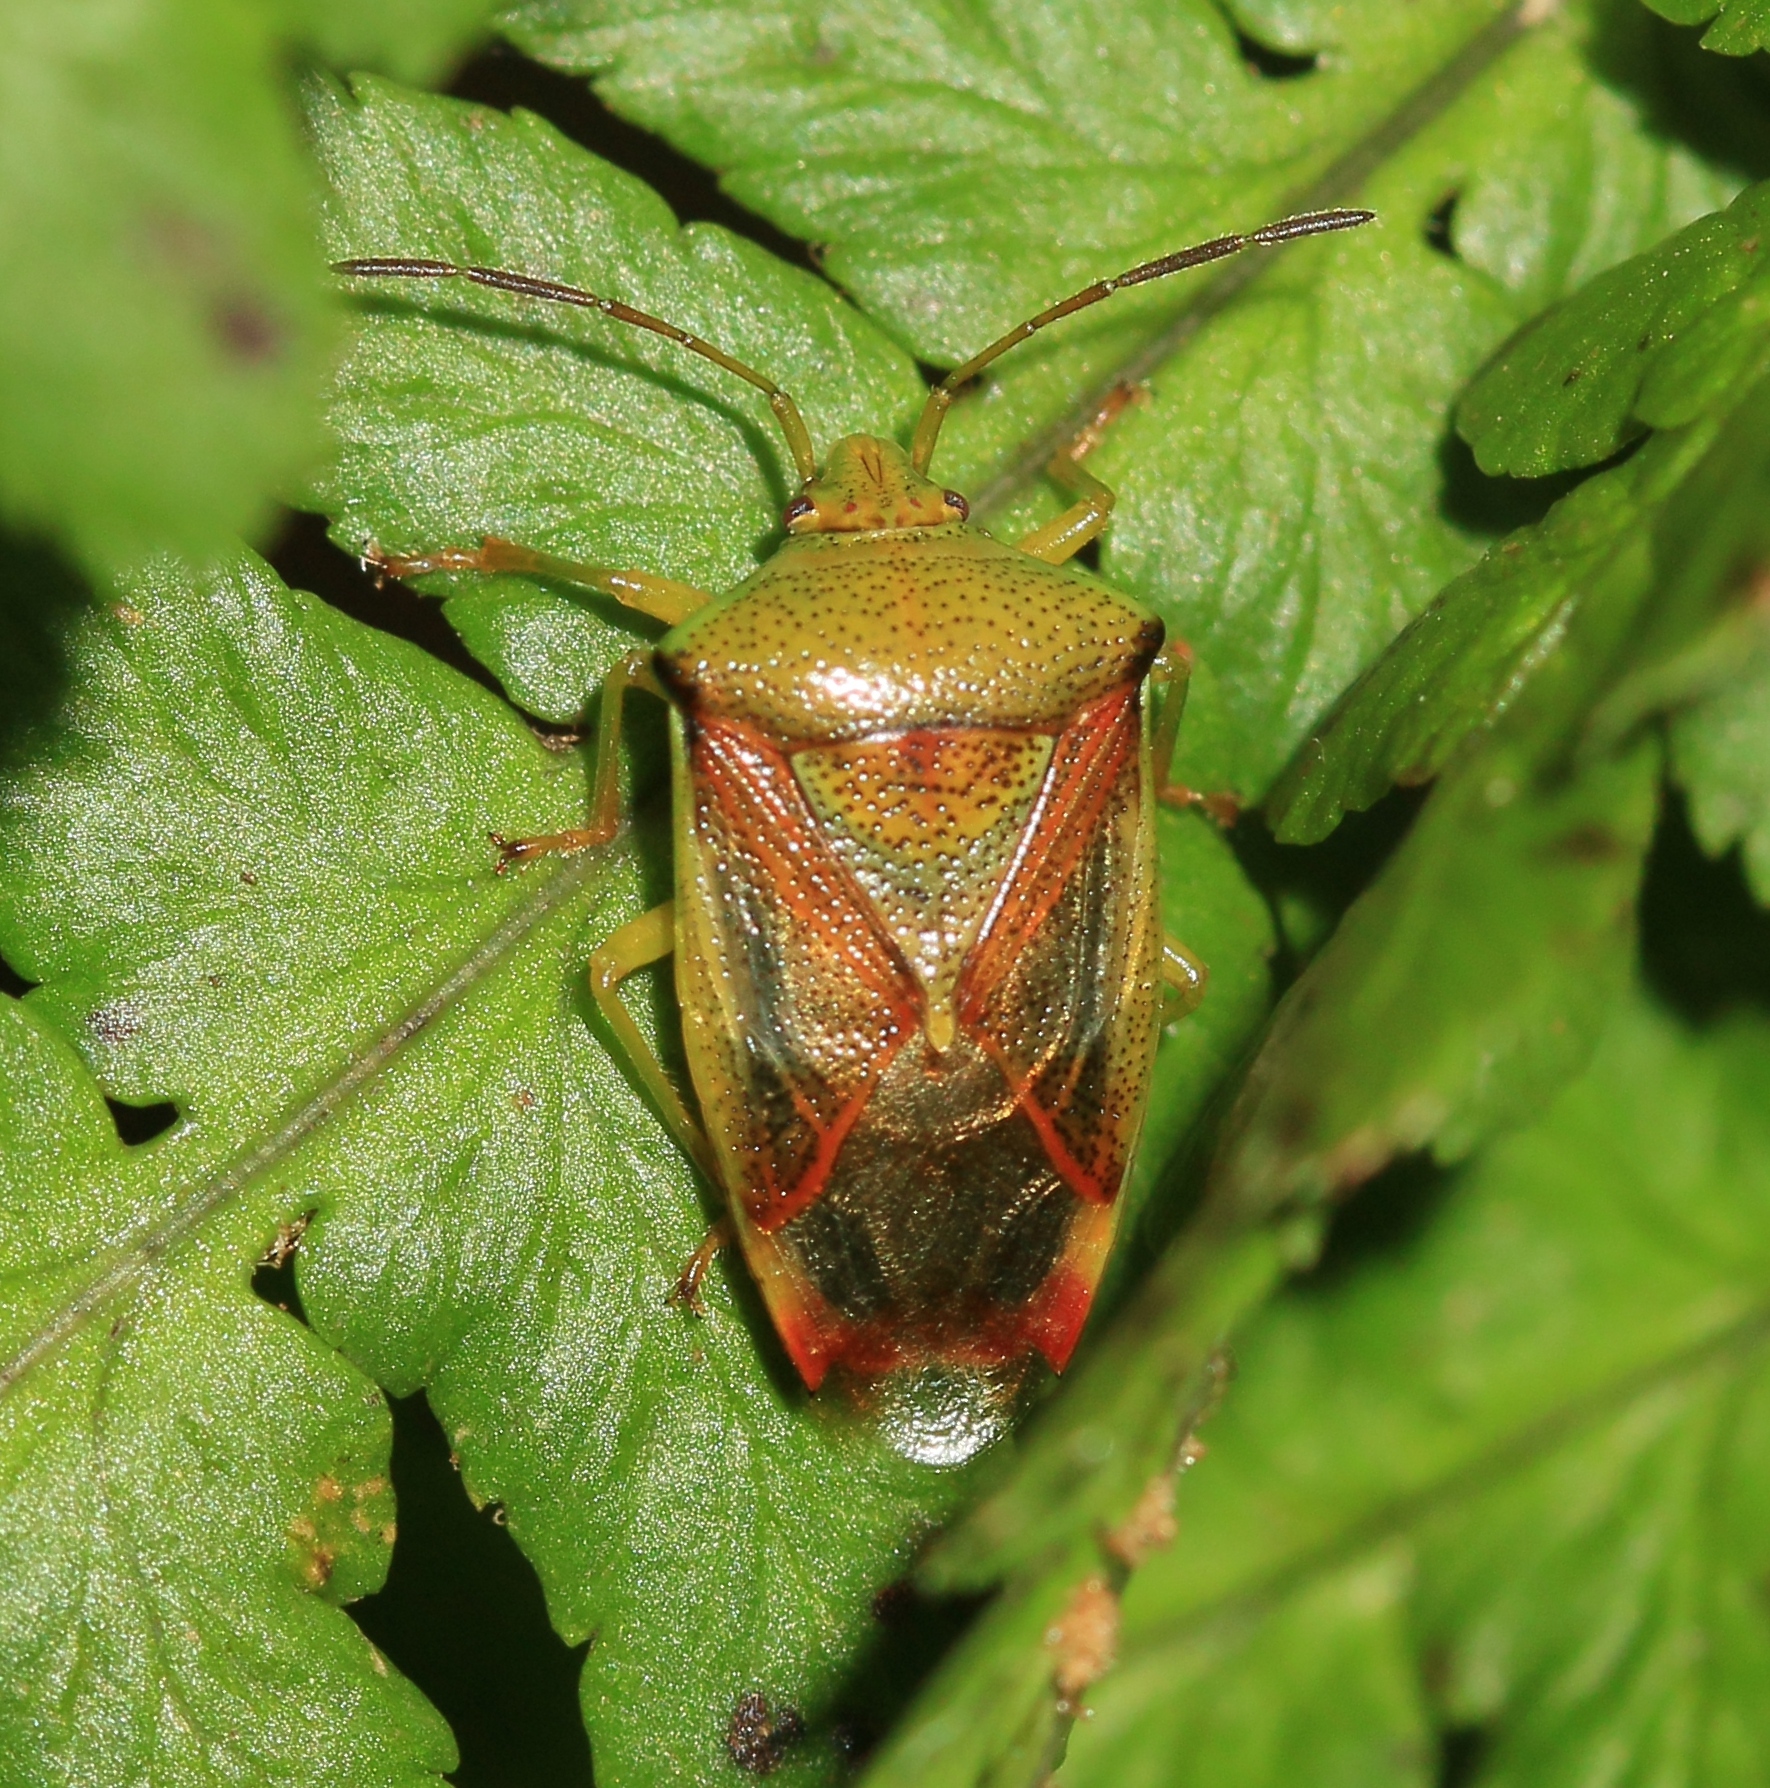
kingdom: Animalia
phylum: Arthropoda
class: Insecta
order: Hemiptera
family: Acanthosomatidae
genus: Elasmostethus
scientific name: Elasmostethus interstinctus
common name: Birch shieldbug
